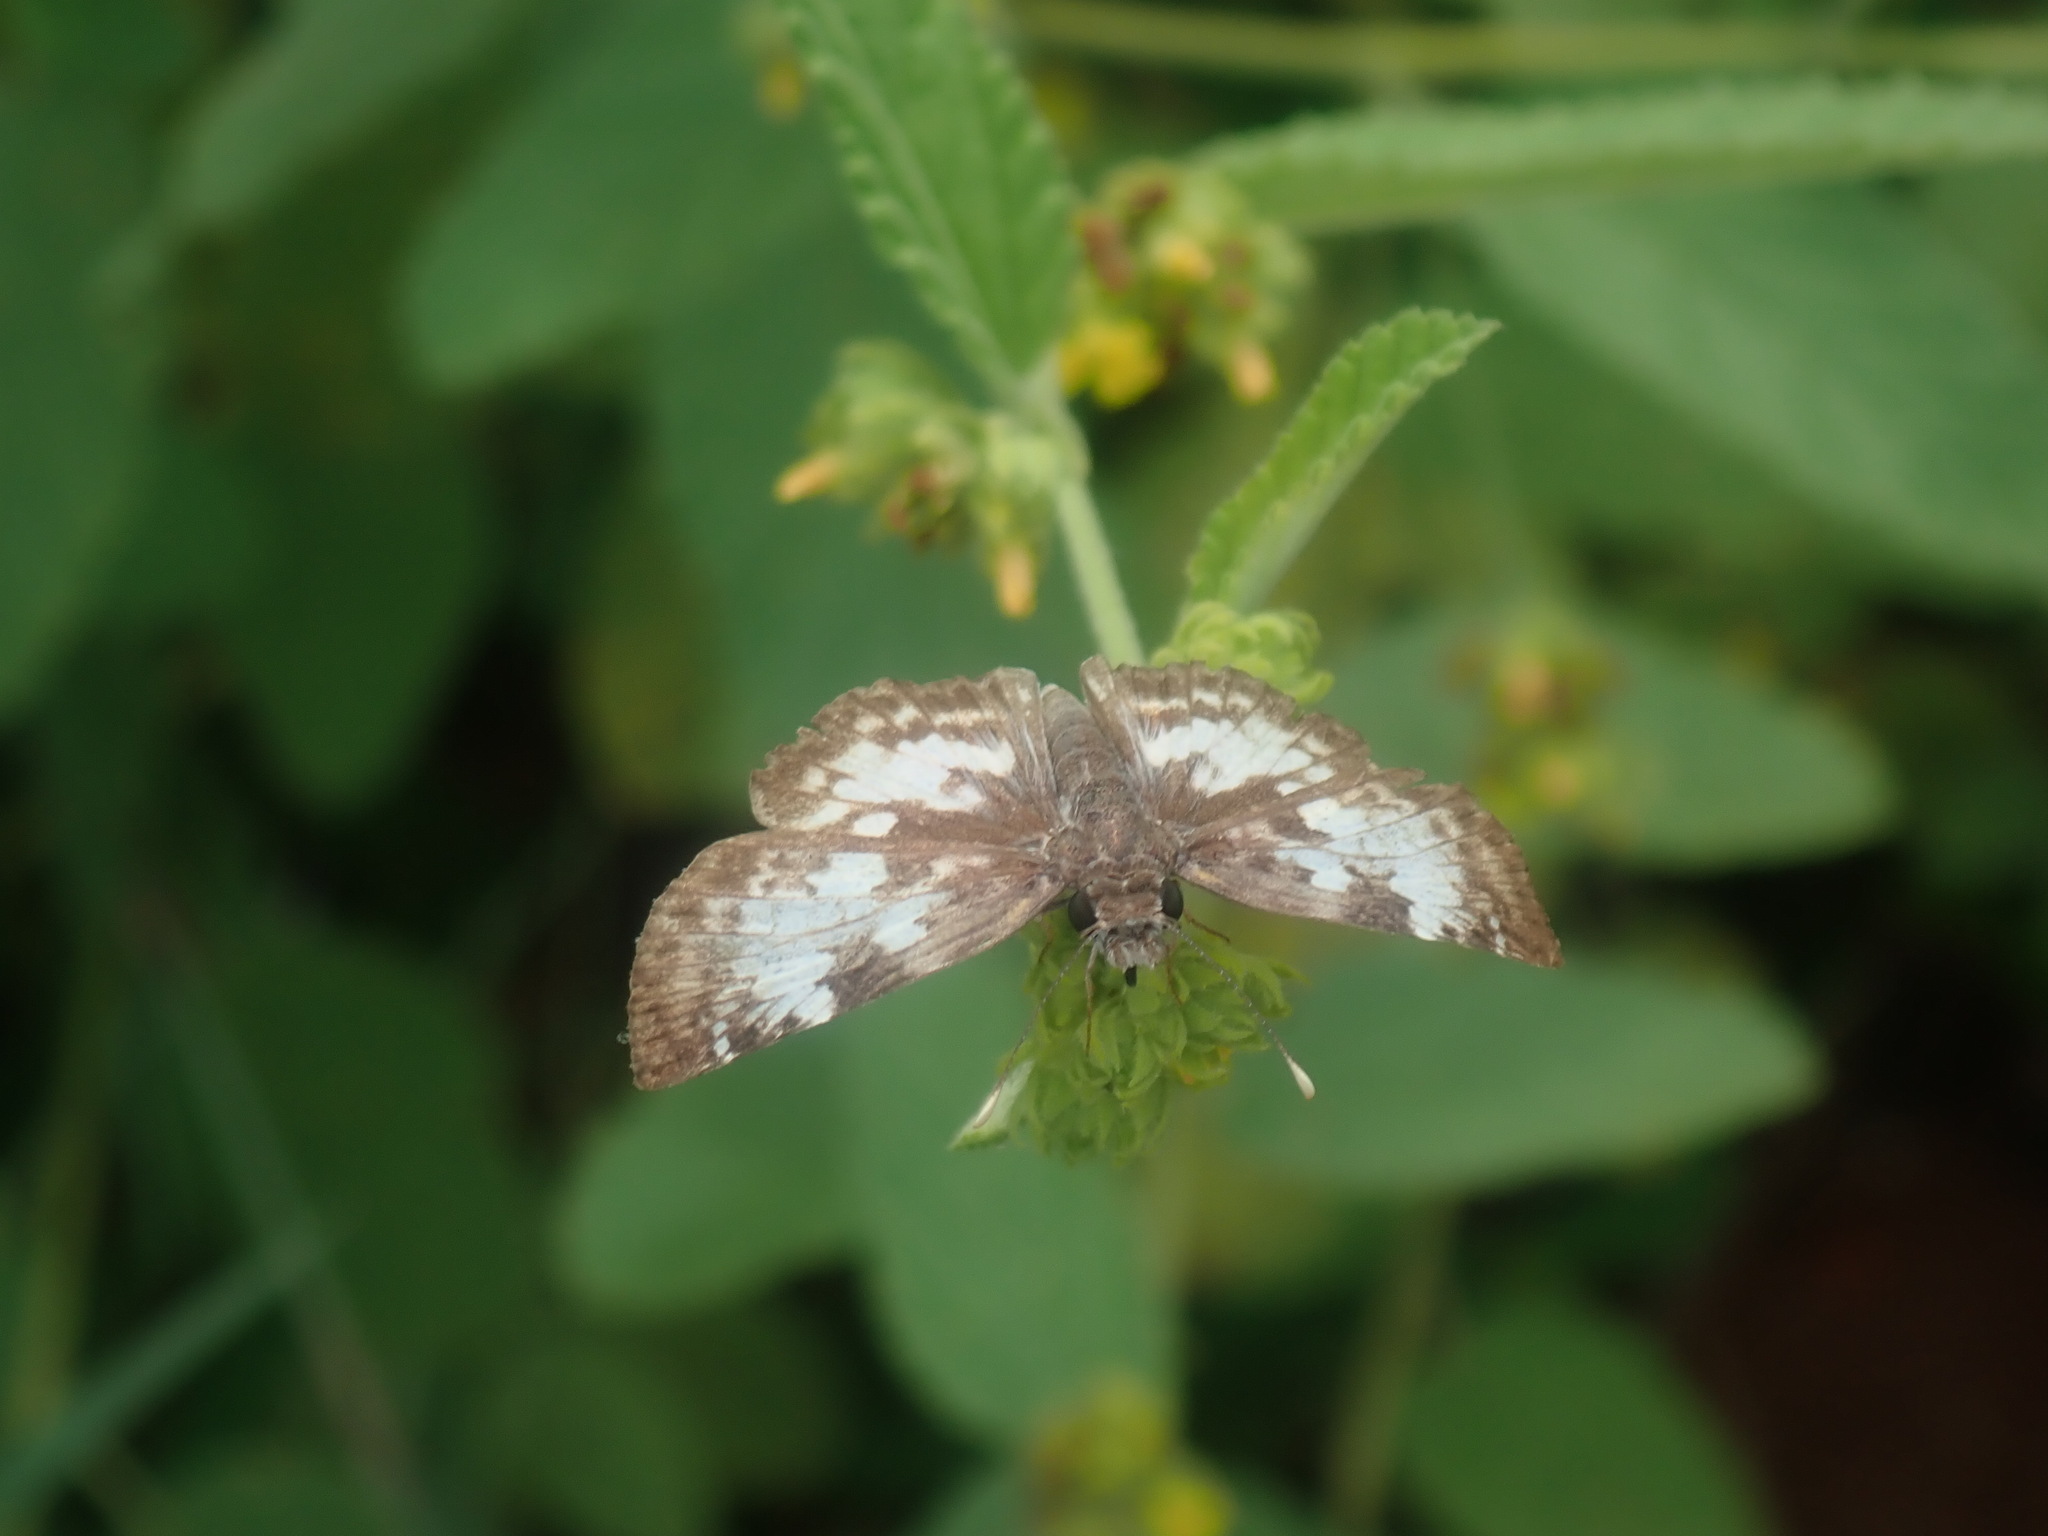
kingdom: Animalia
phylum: Arthropoda
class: Insecta
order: Lepidoptera
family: Hesperiidae
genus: Chiothion
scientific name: Chiothion georgina
